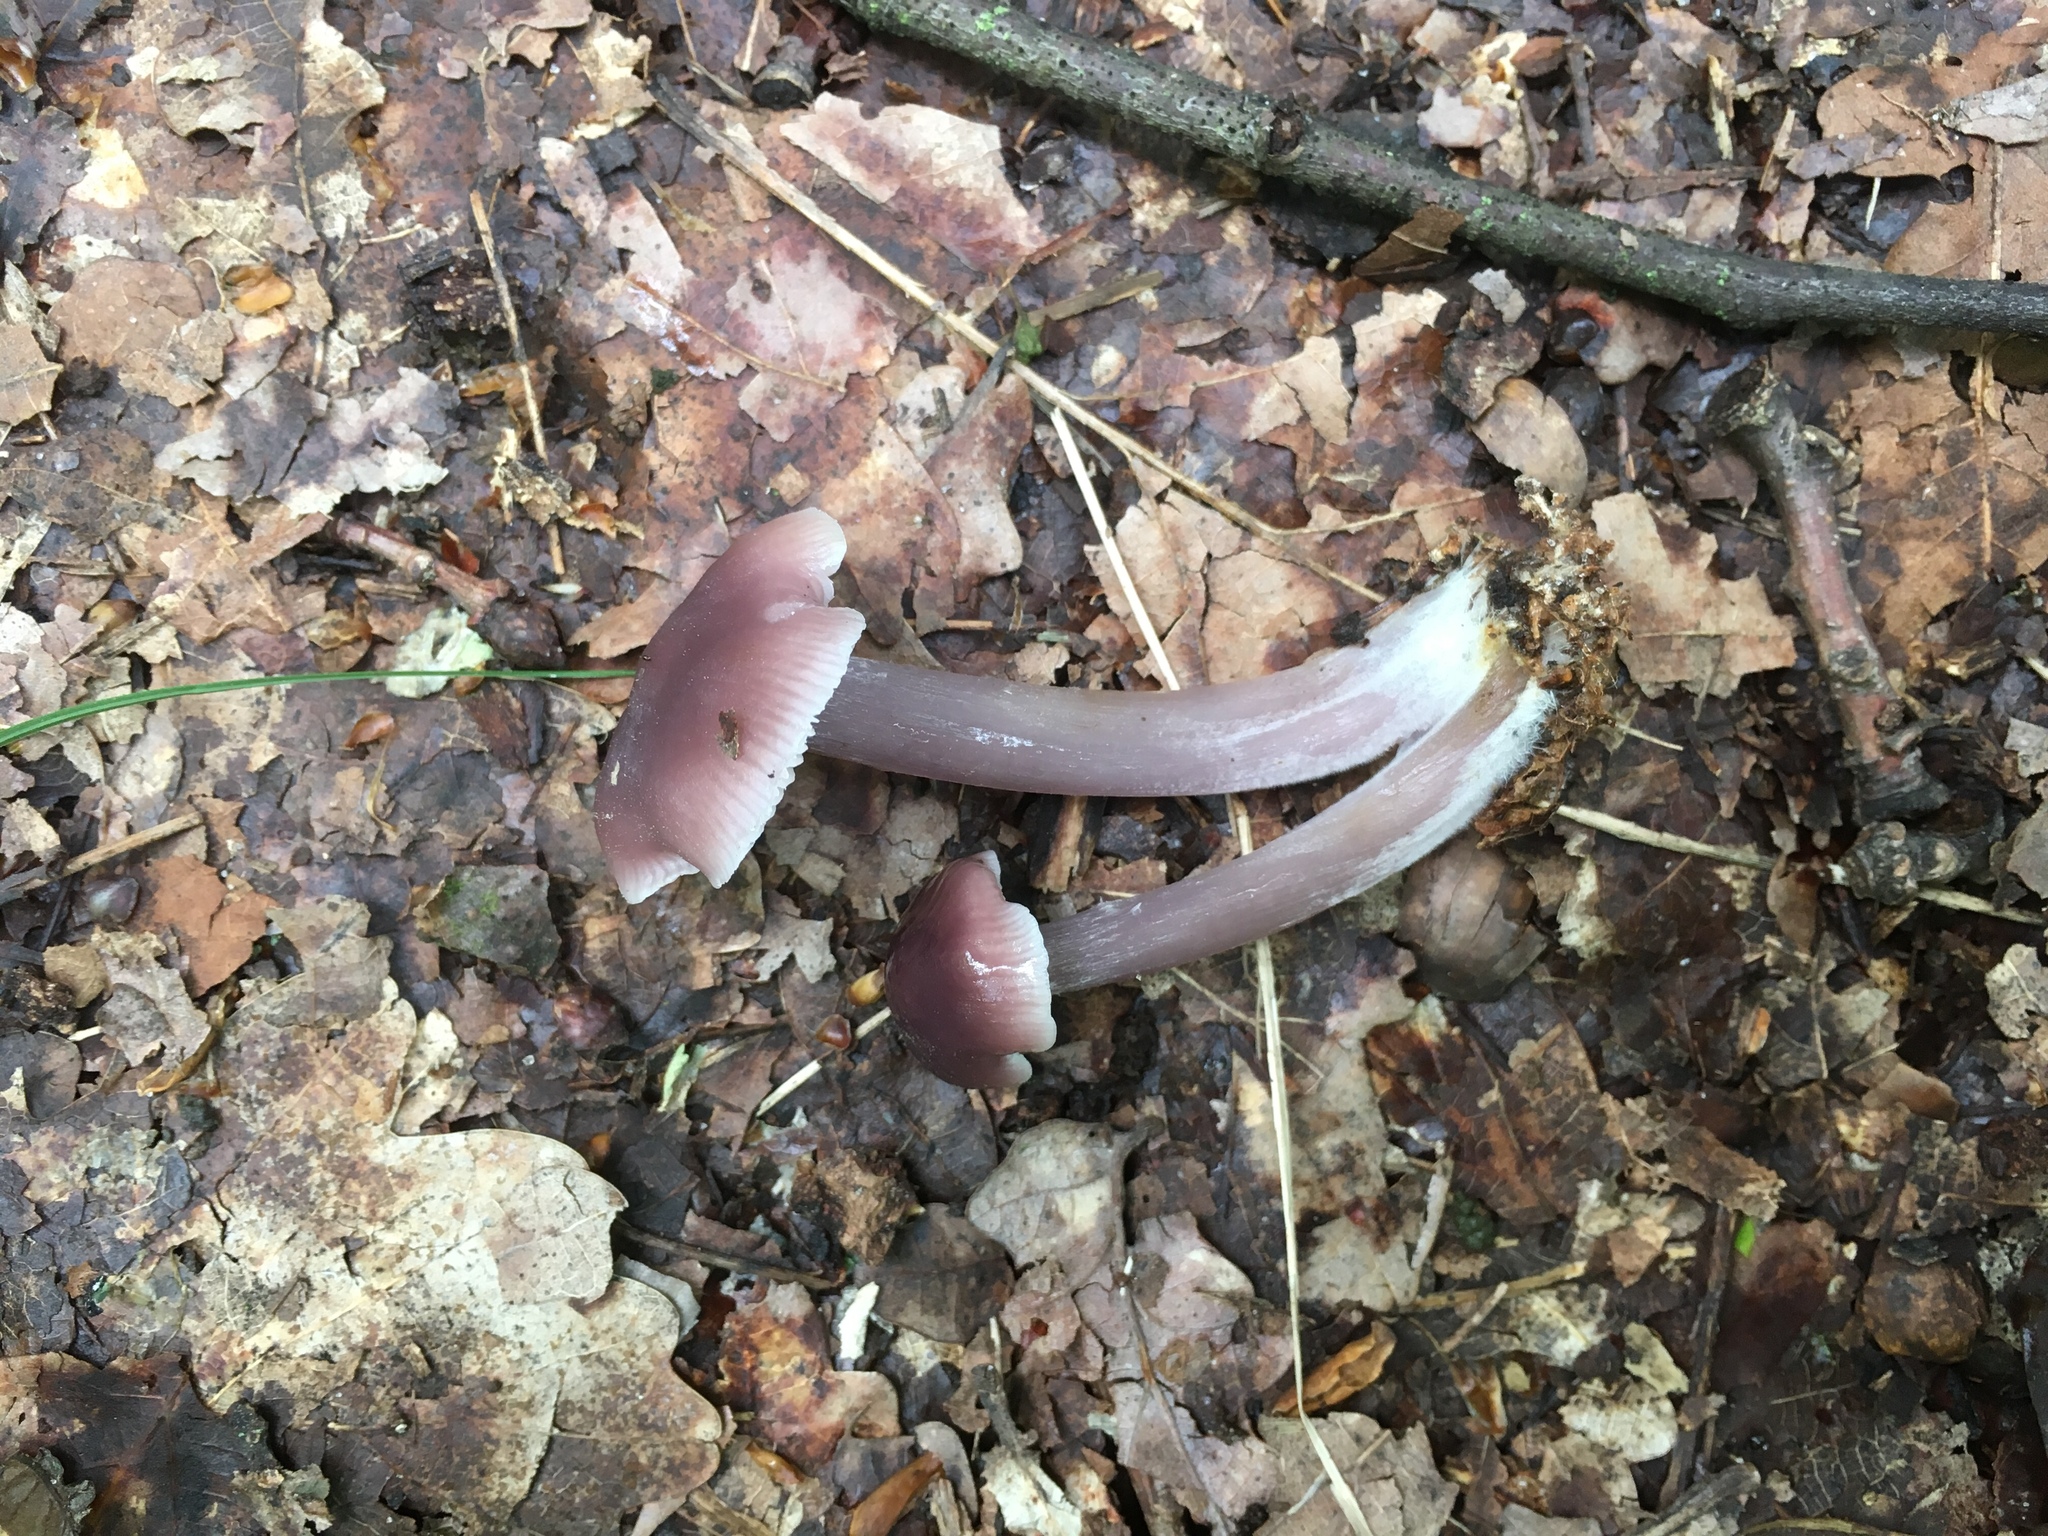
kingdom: Fungi
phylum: Basidiomycota
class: Agaricomycetes
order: Agaricales
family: Mycenaceae
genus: Mycena
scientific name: Mycena pura
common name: Lilac bonnet
